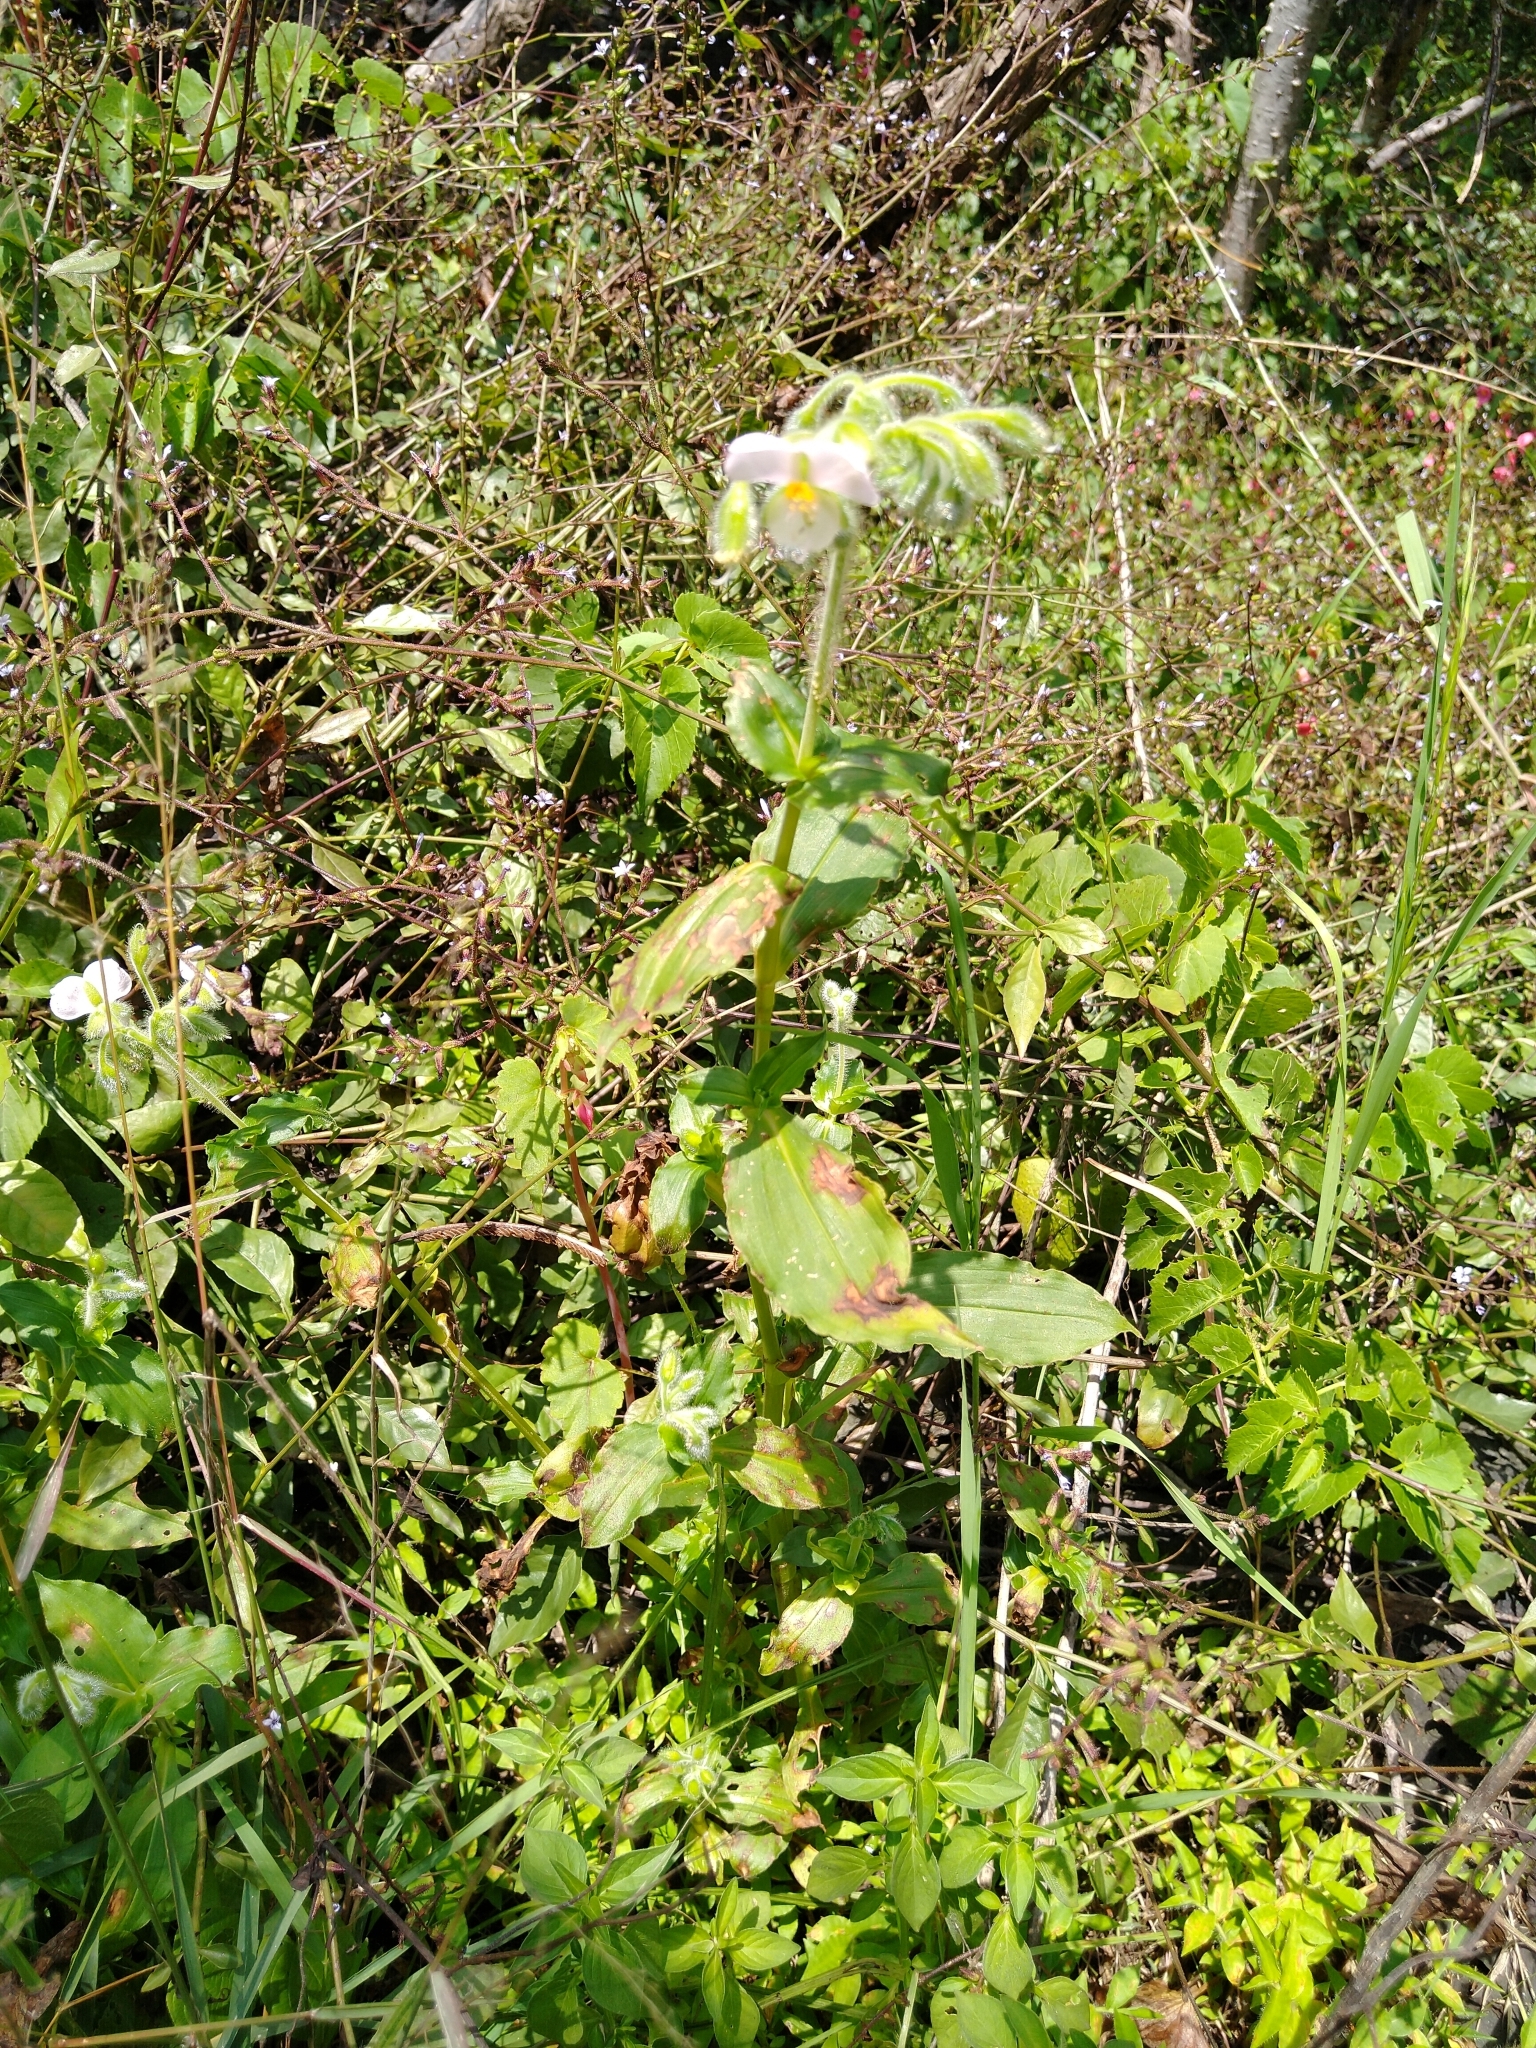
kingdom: Plantae
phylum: Tracheophyta
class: Liliopsida
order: Commelinales
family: Commelinaceae
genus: Tinantia
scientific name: Tinantia erecta
